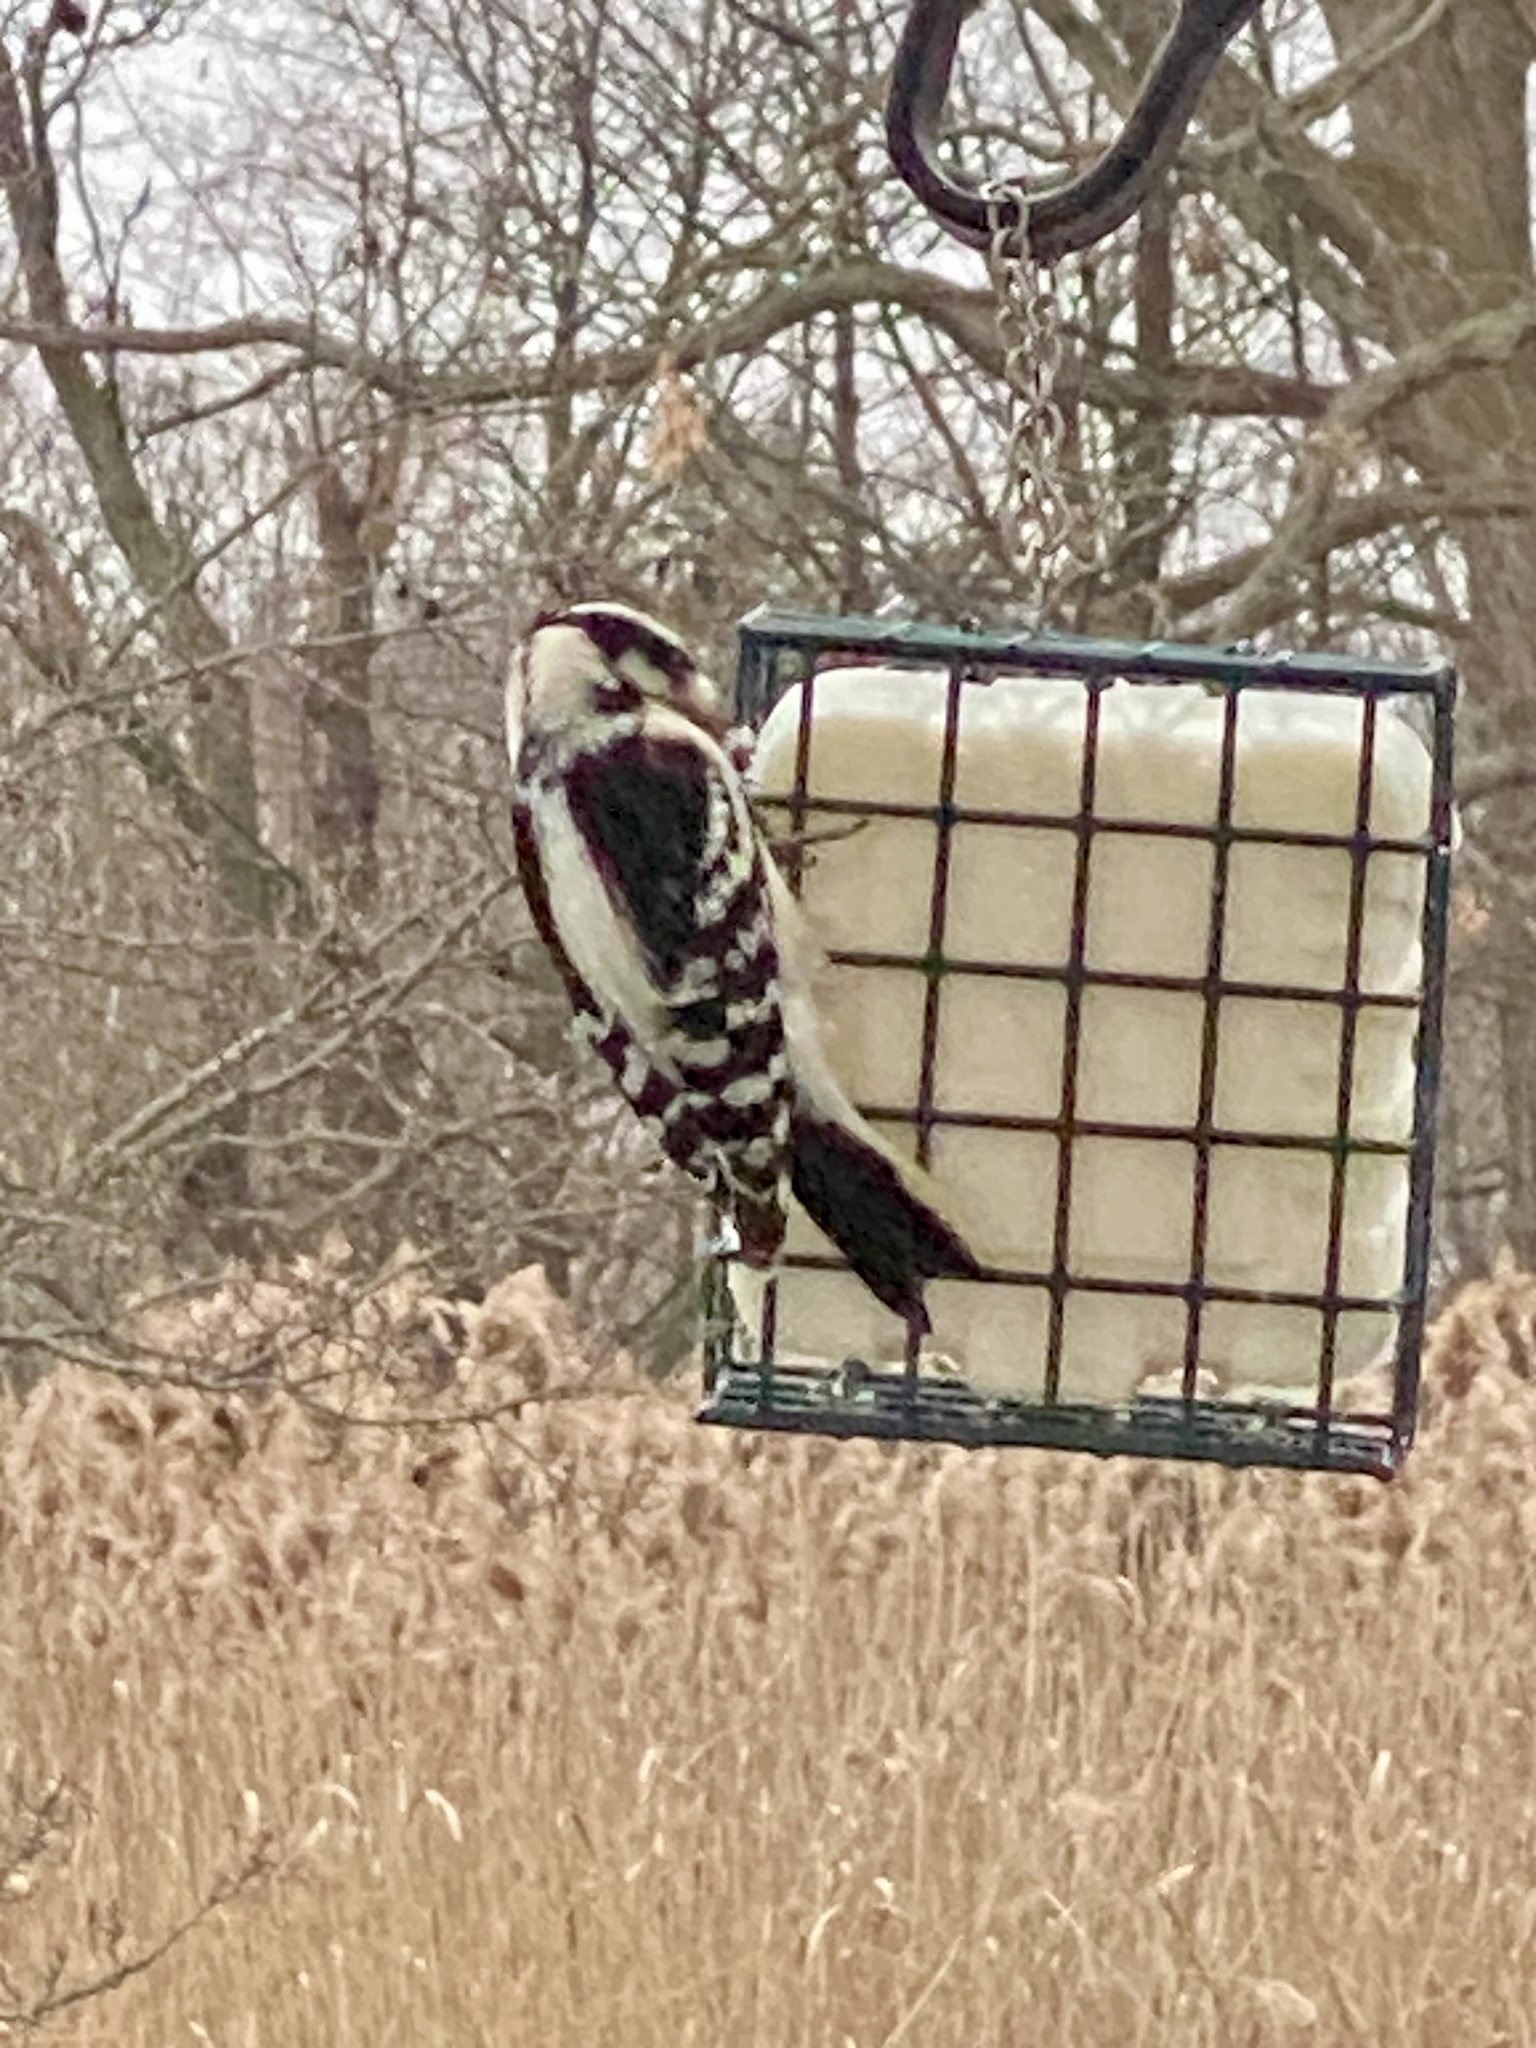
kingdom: Animalia
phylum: Chordata
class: Aves
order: Piciformes
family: Picidae
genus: Dryobates
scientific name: Dryobates pubescens
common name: Downy woodpecker
